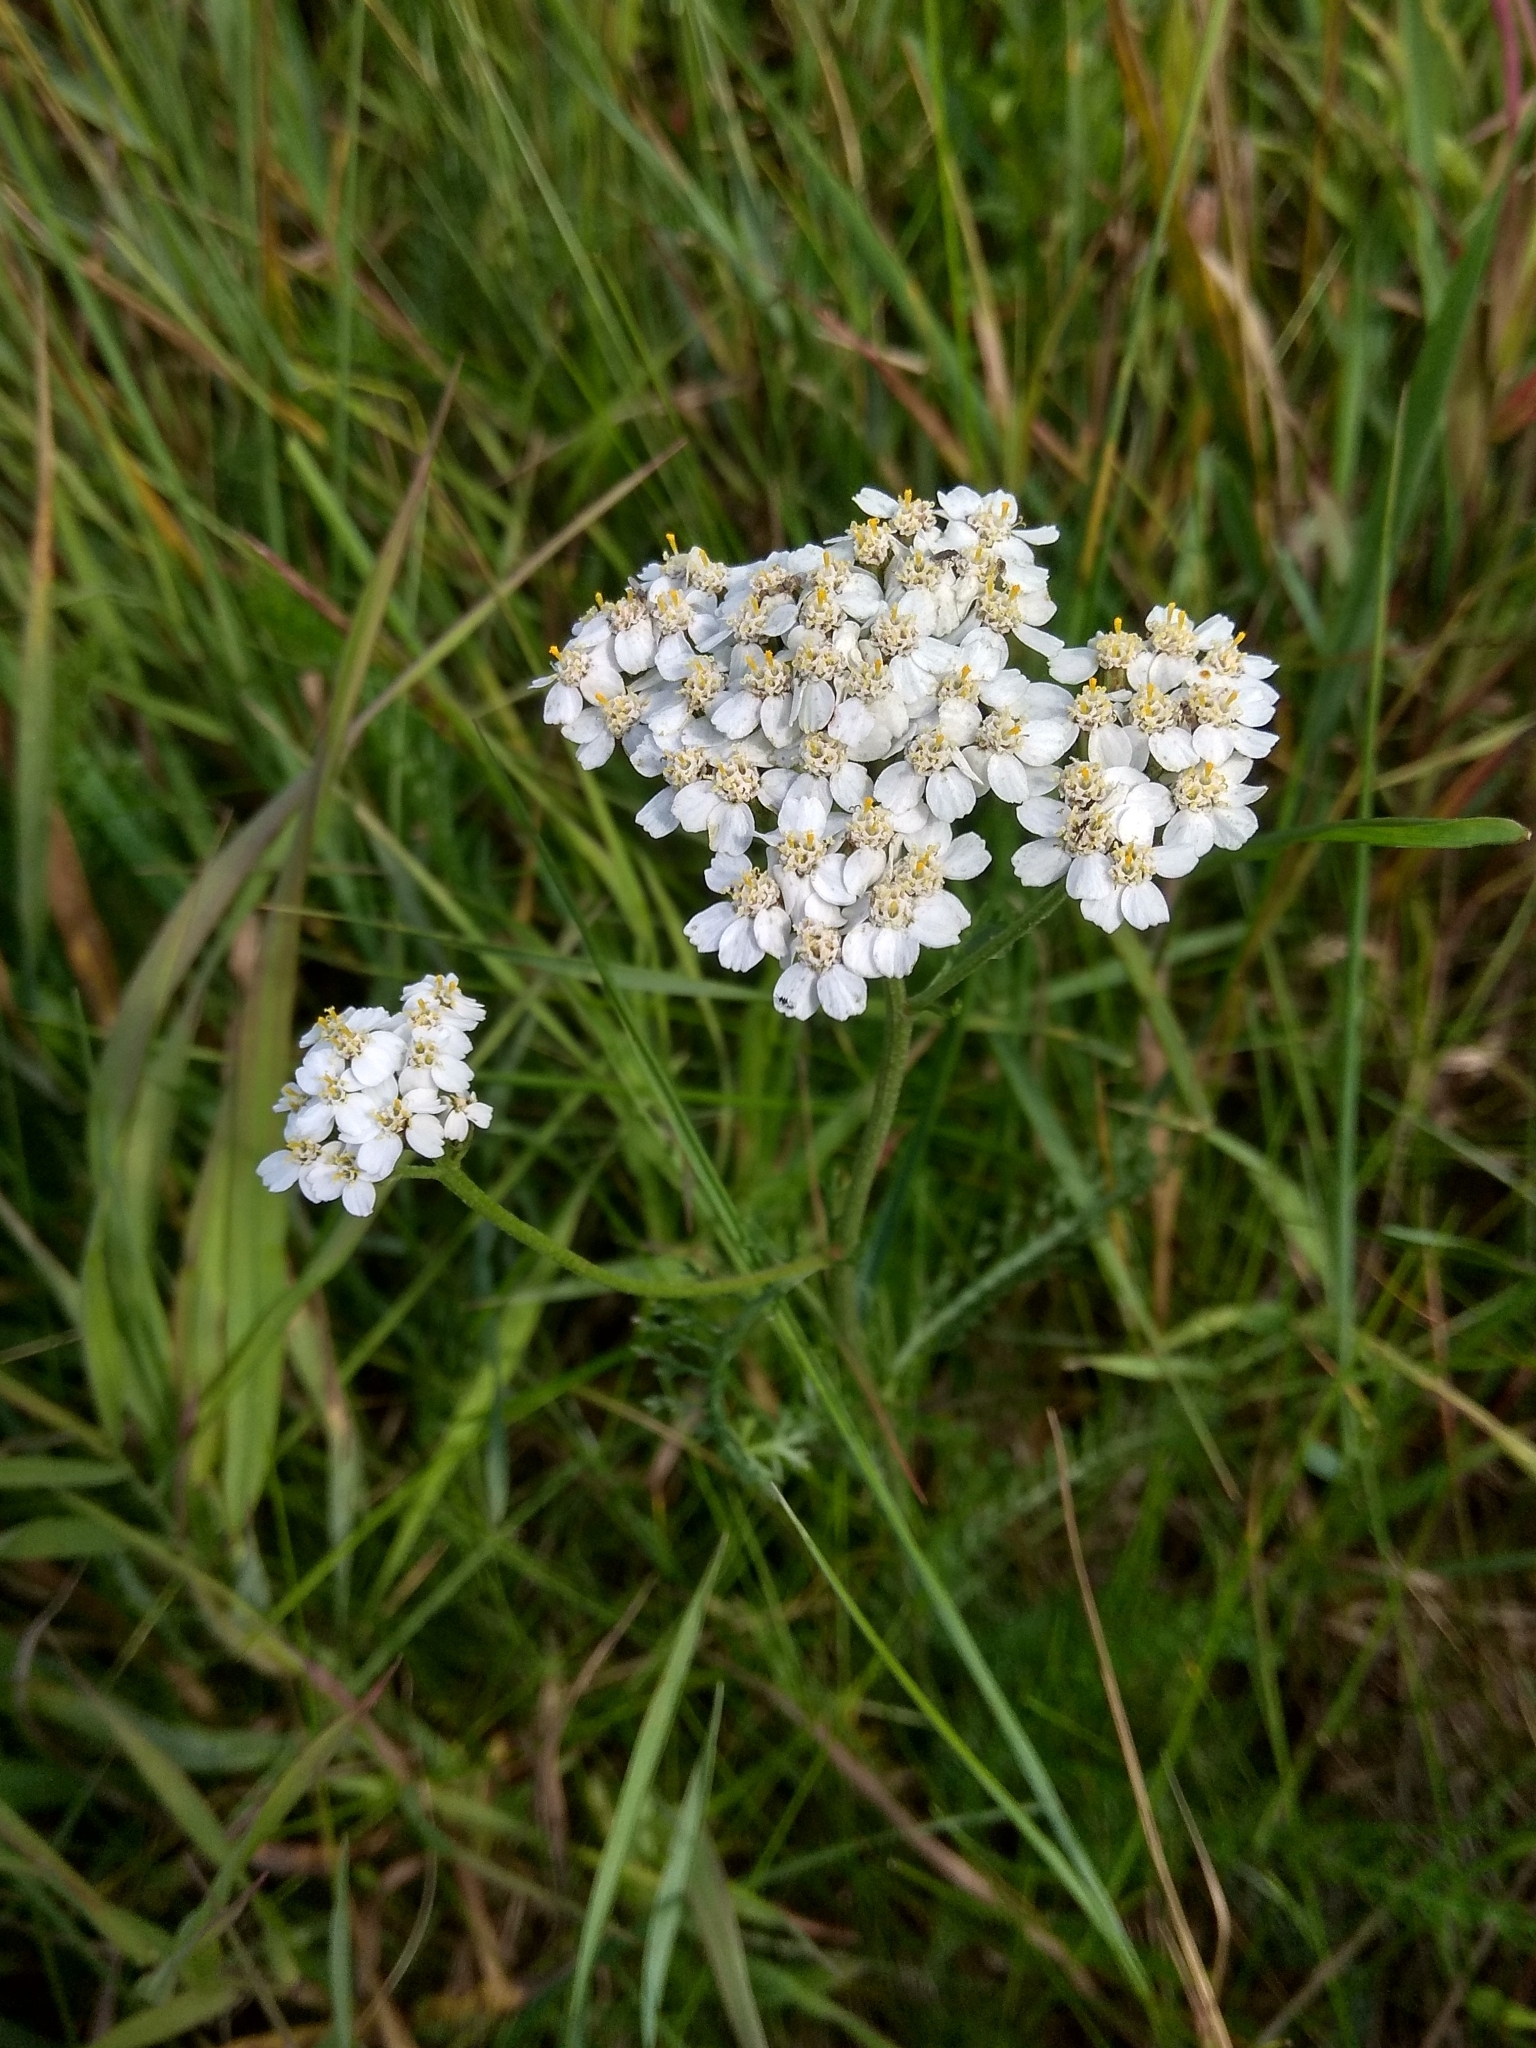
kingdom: Plantae
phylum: Tracheophyta
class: Magnoliopsida
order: Asterales
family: Asteraceae
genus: Achillea
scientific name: Achillea millefolium
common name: Yarrow
